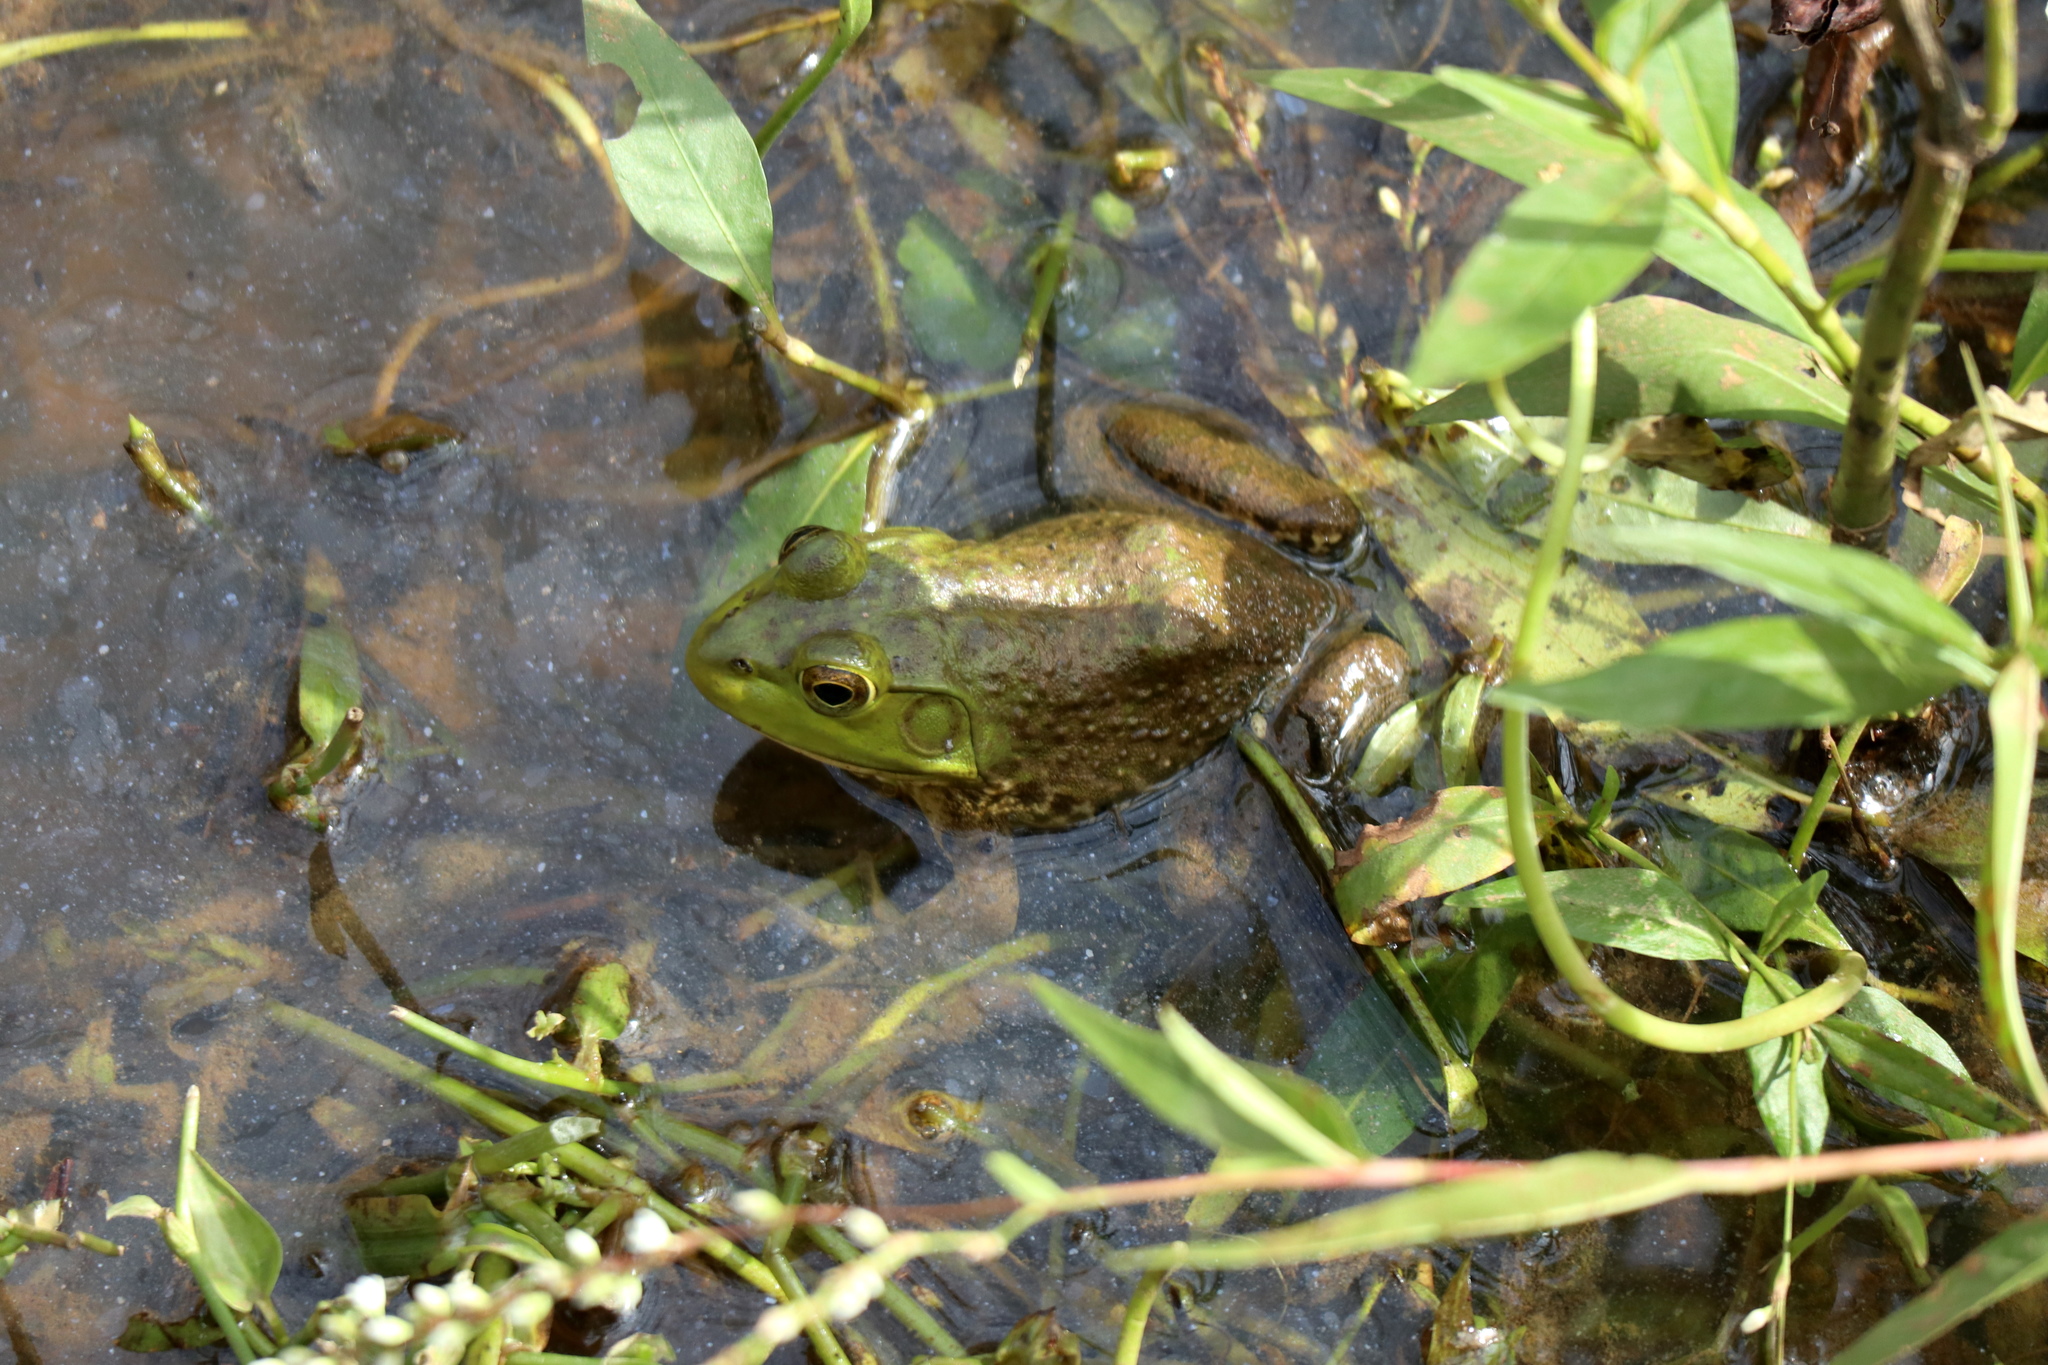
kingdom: Animalia
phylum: Chordata
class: Amphibia
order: Anura
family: Ranidae
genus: Lithobates
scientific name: Lithobates catesbeianus
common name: American bullfrog
